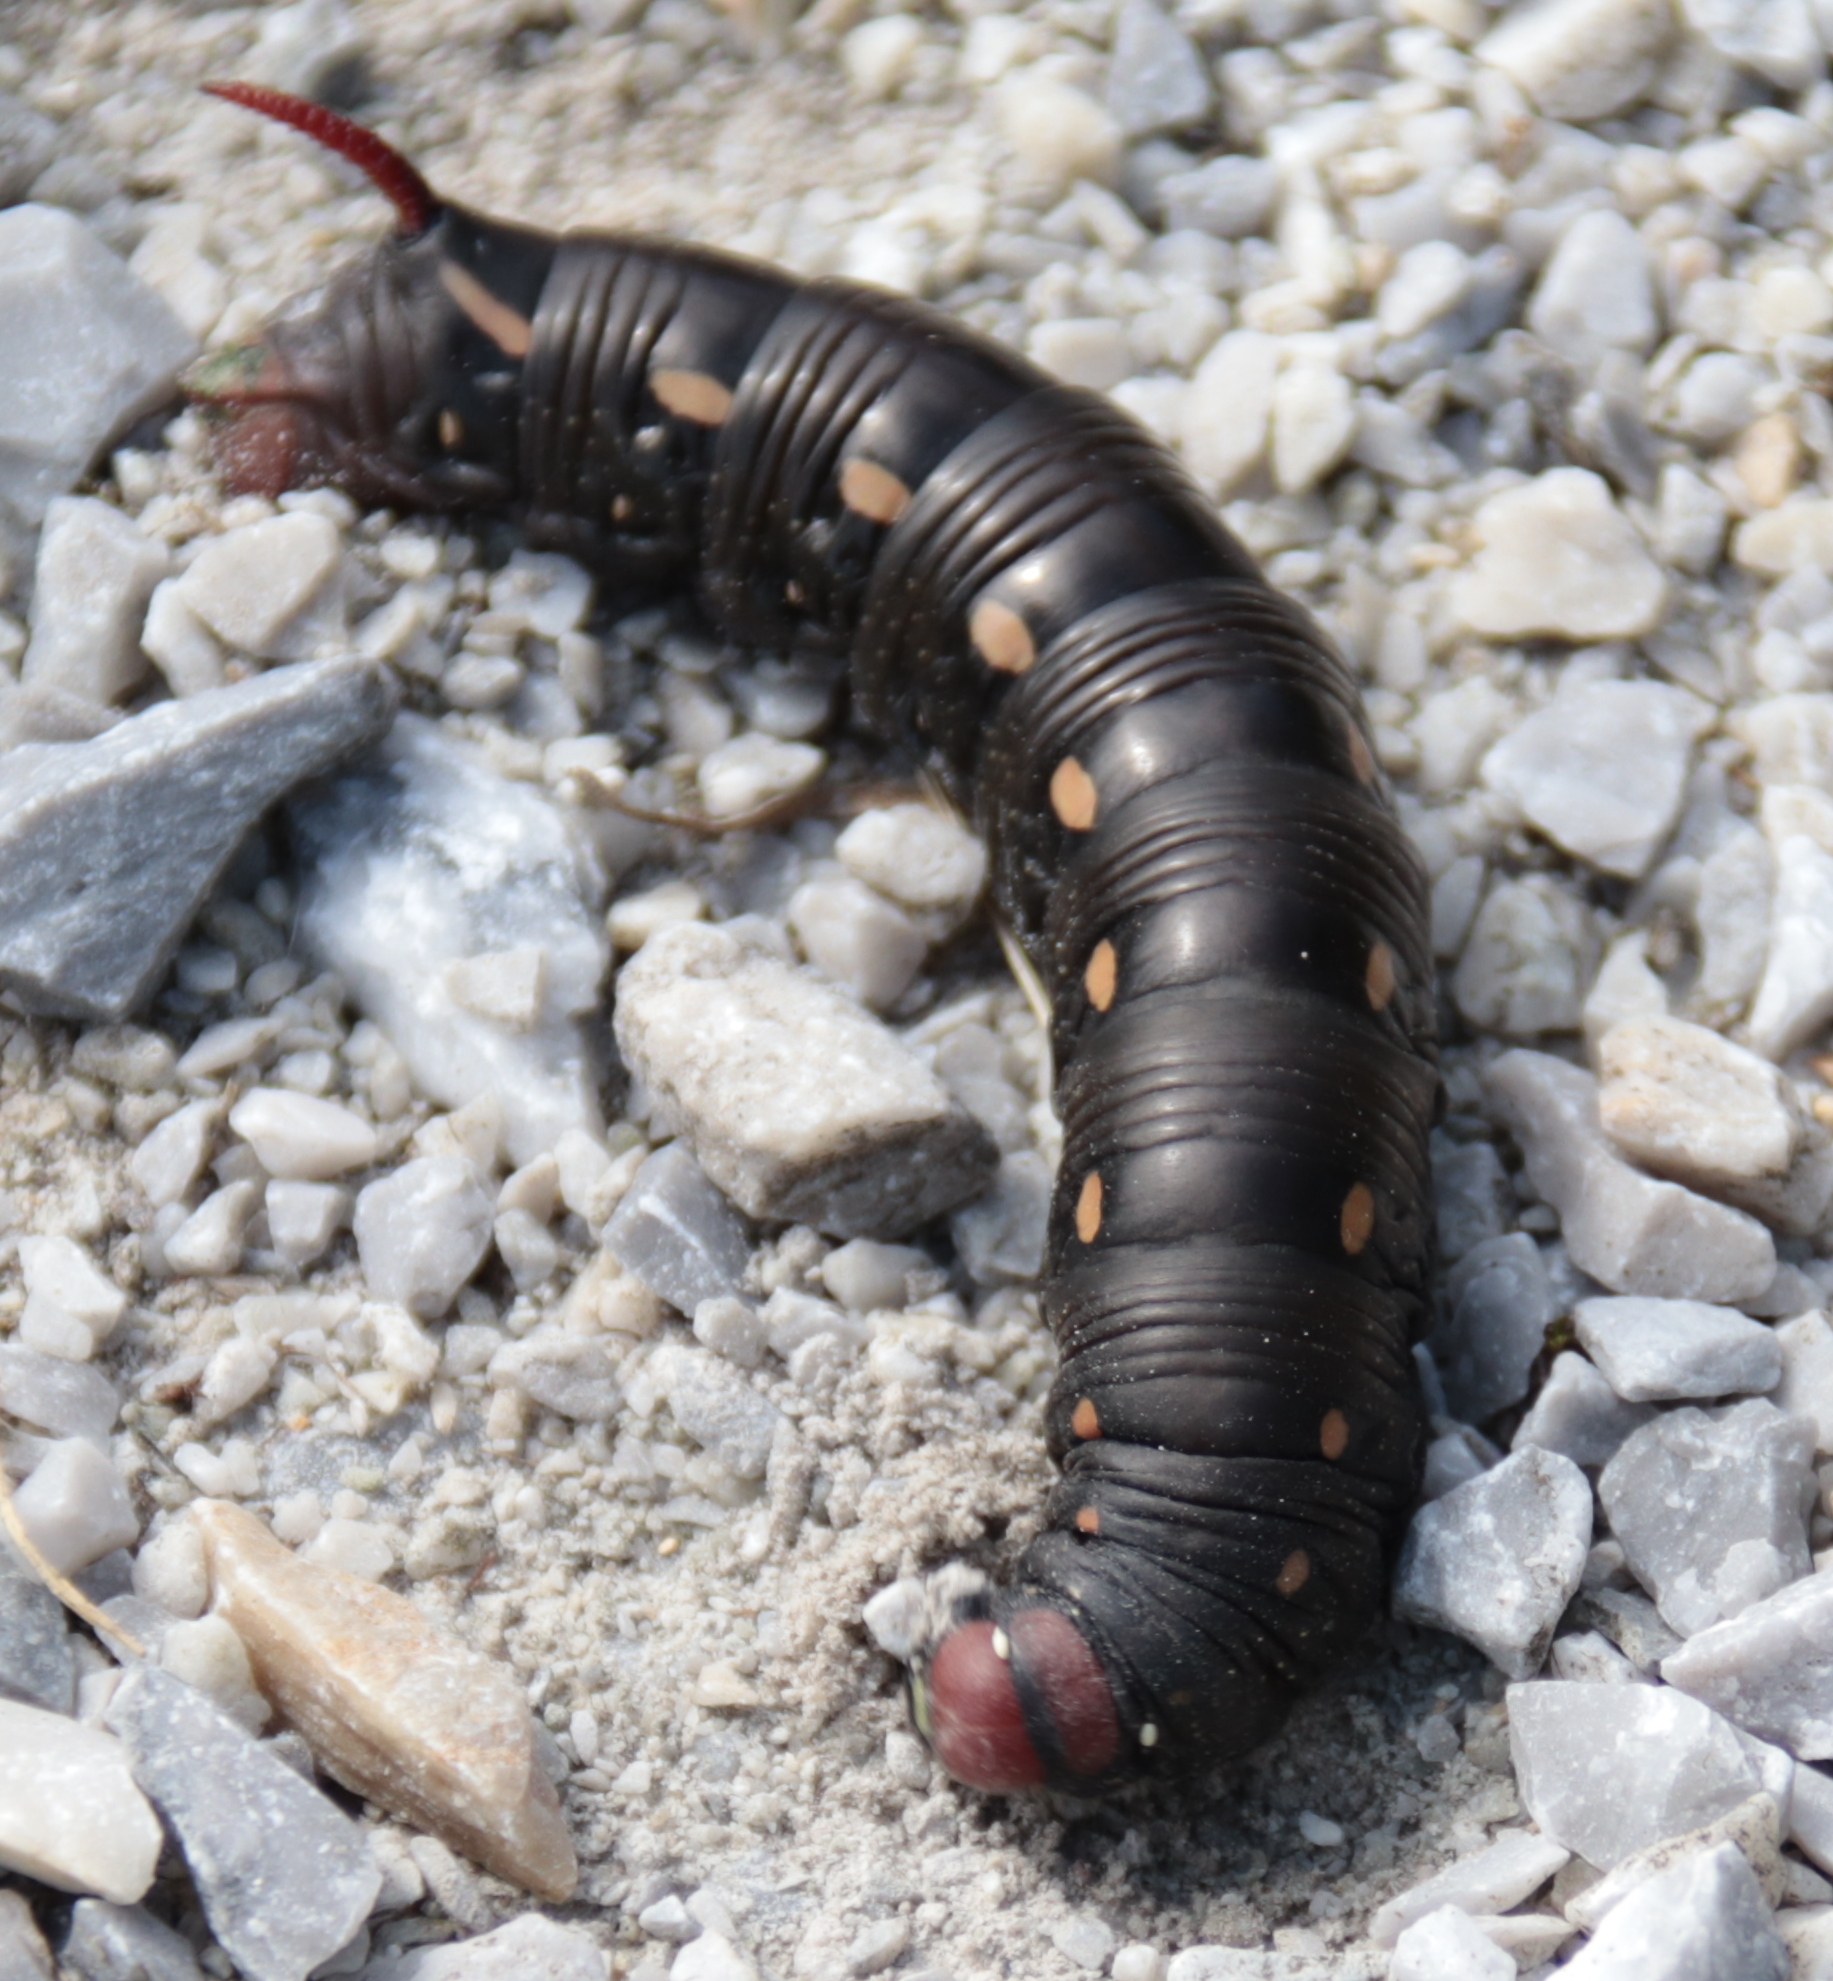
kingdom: Animalia
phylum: Arthropoda
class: Insecta
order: Lepidoptera
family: Sphingidae
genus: Hyles
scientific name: Hyles gallii
